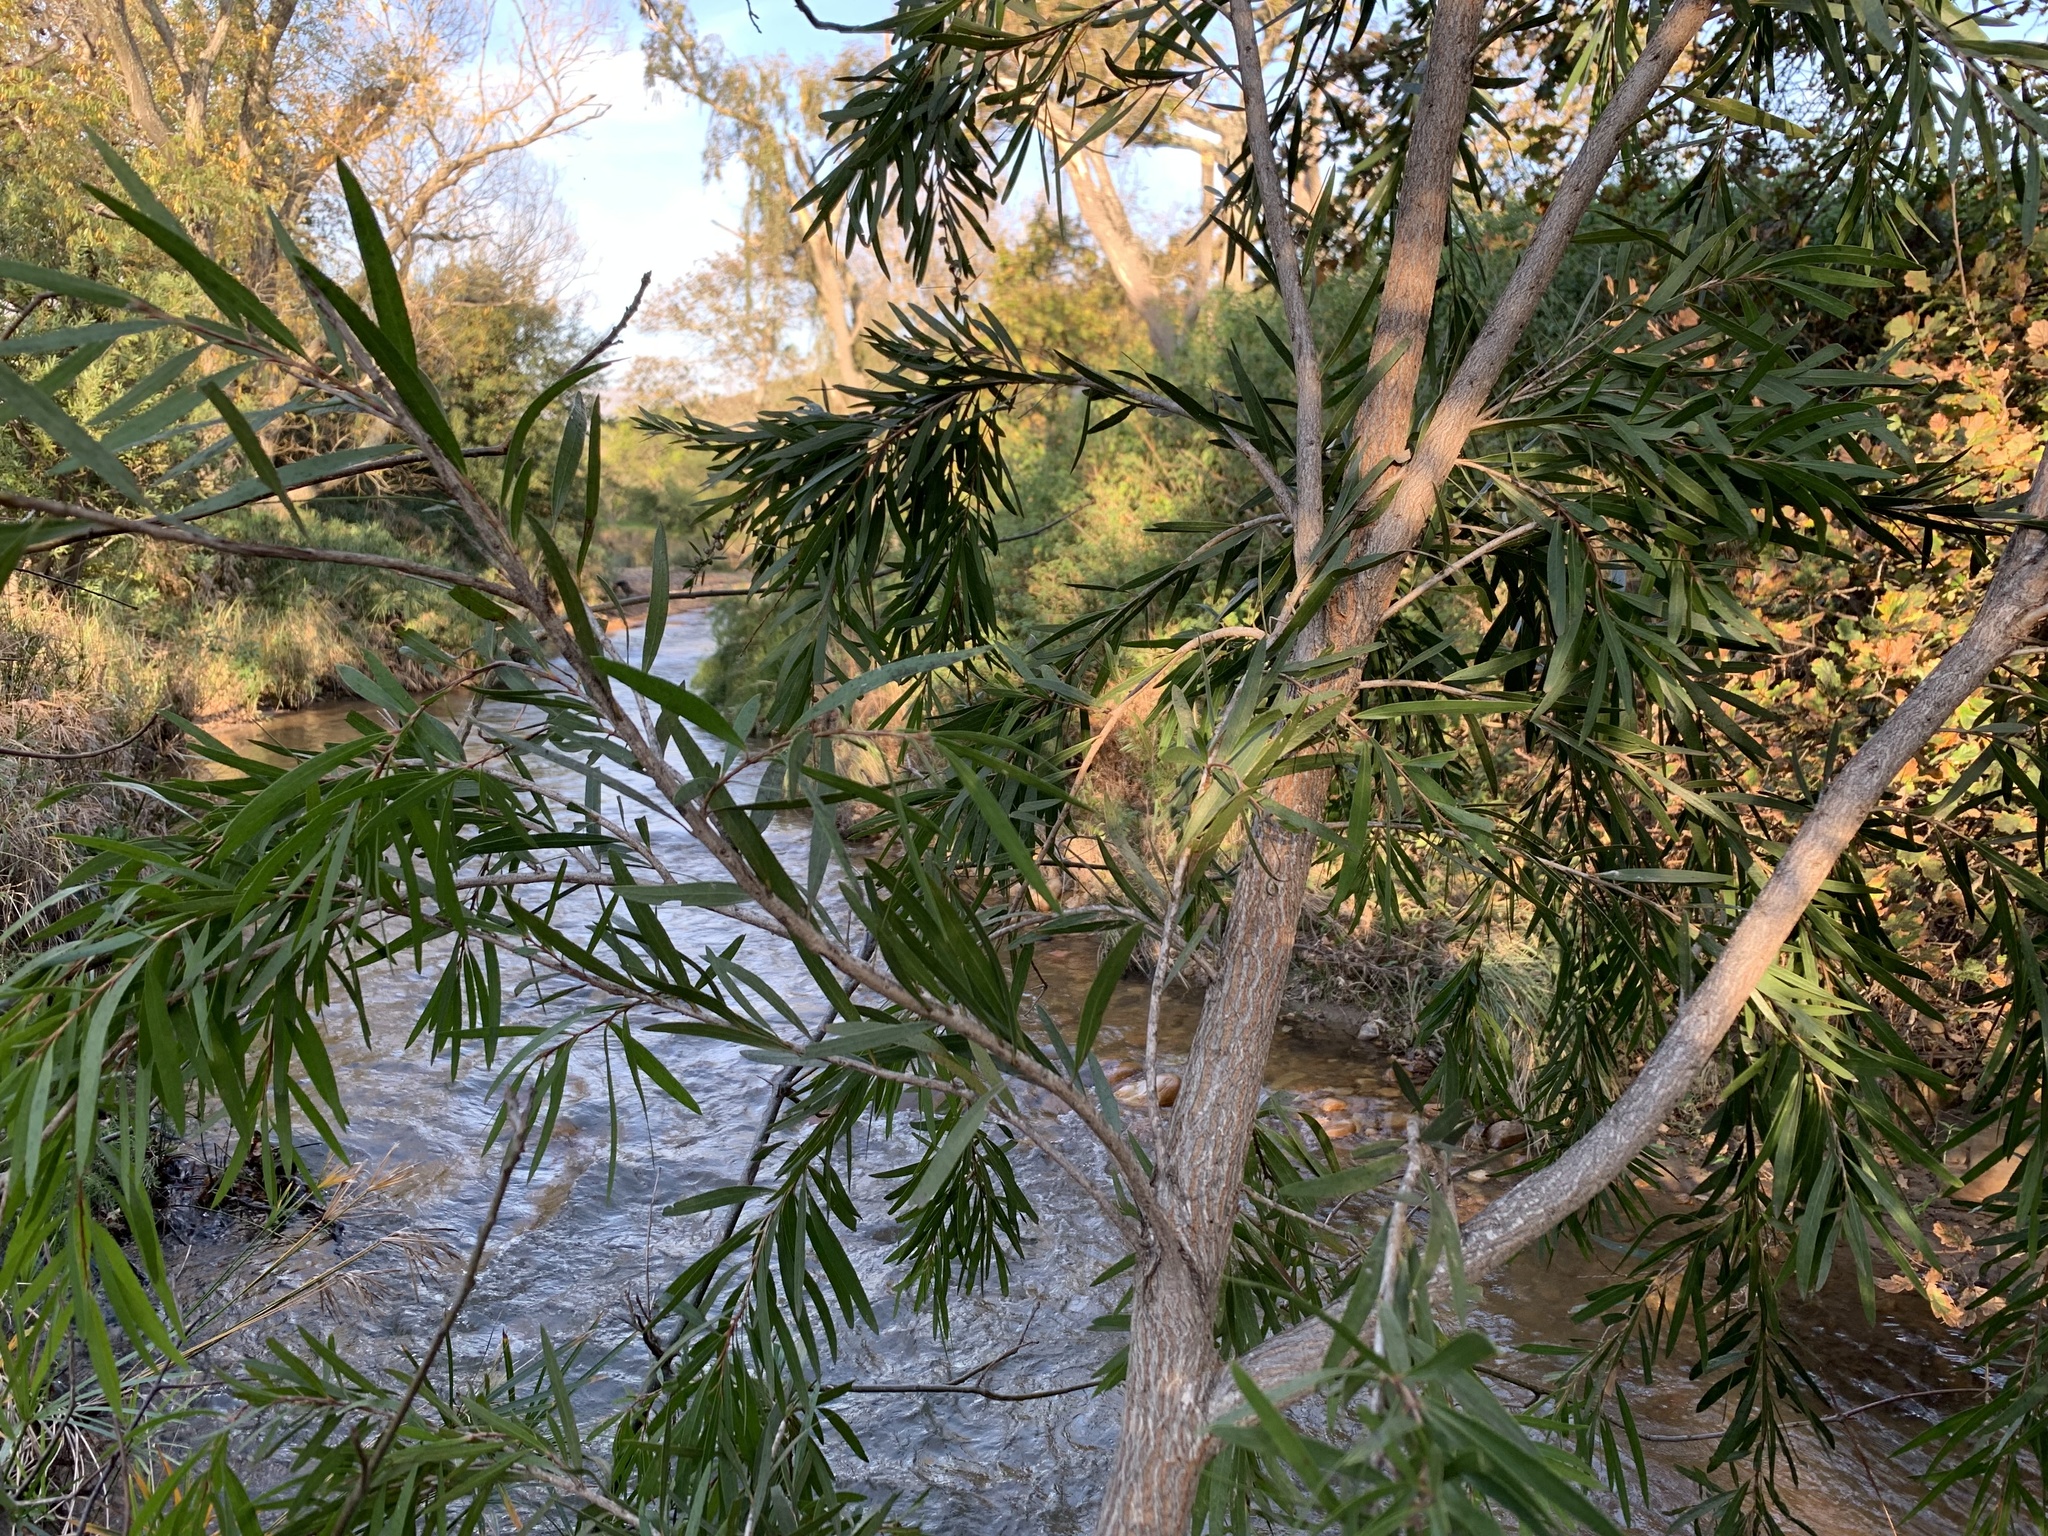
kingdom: Plantae
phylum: Tracheophyta
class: Magnoliopsida
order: Myrtales
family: Myrtaceae
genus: Callistemon
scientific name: Callistemon viminalis
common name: Drooping bottlebrush
